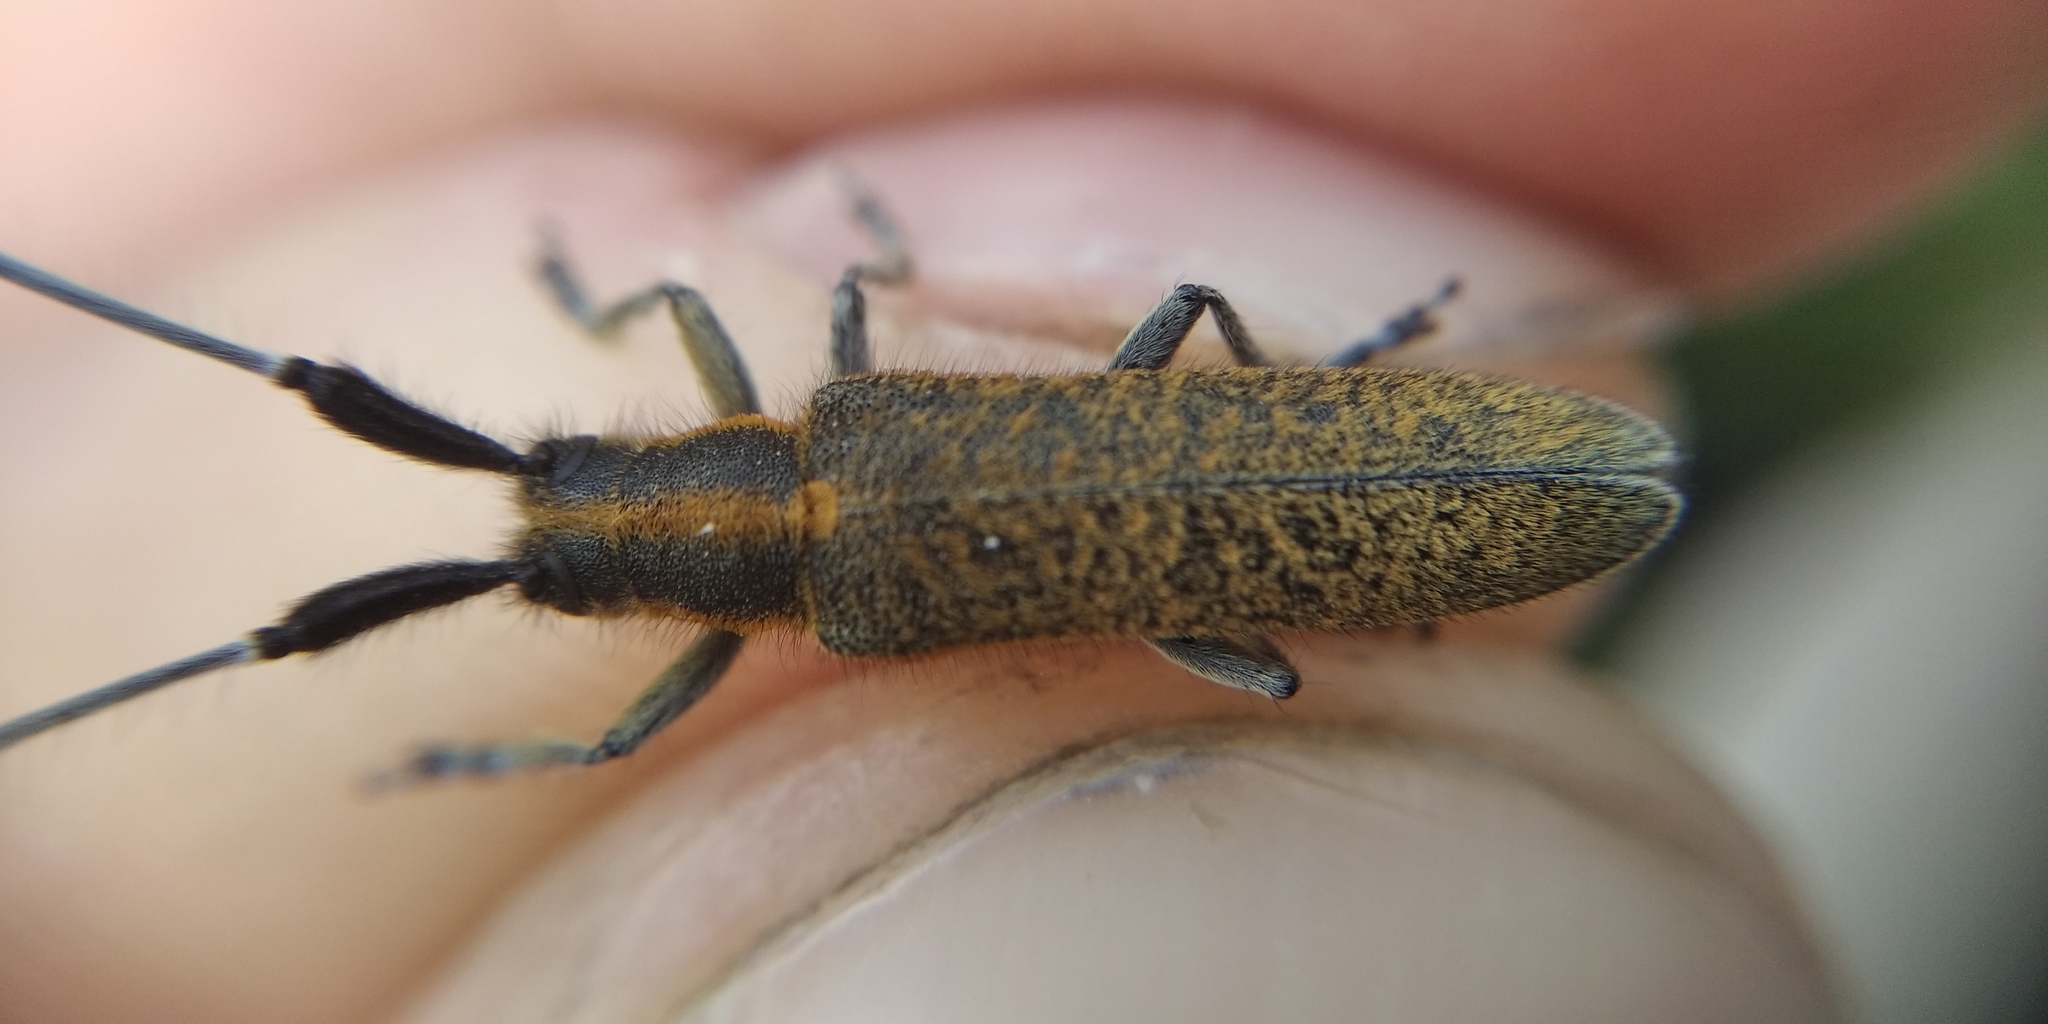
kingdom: Animalia
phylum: Arthropoda
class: Insecta
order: Coleoptera
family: Cerambycidae
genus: Agapanthia
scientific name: Agapanthia villosoviridescens
